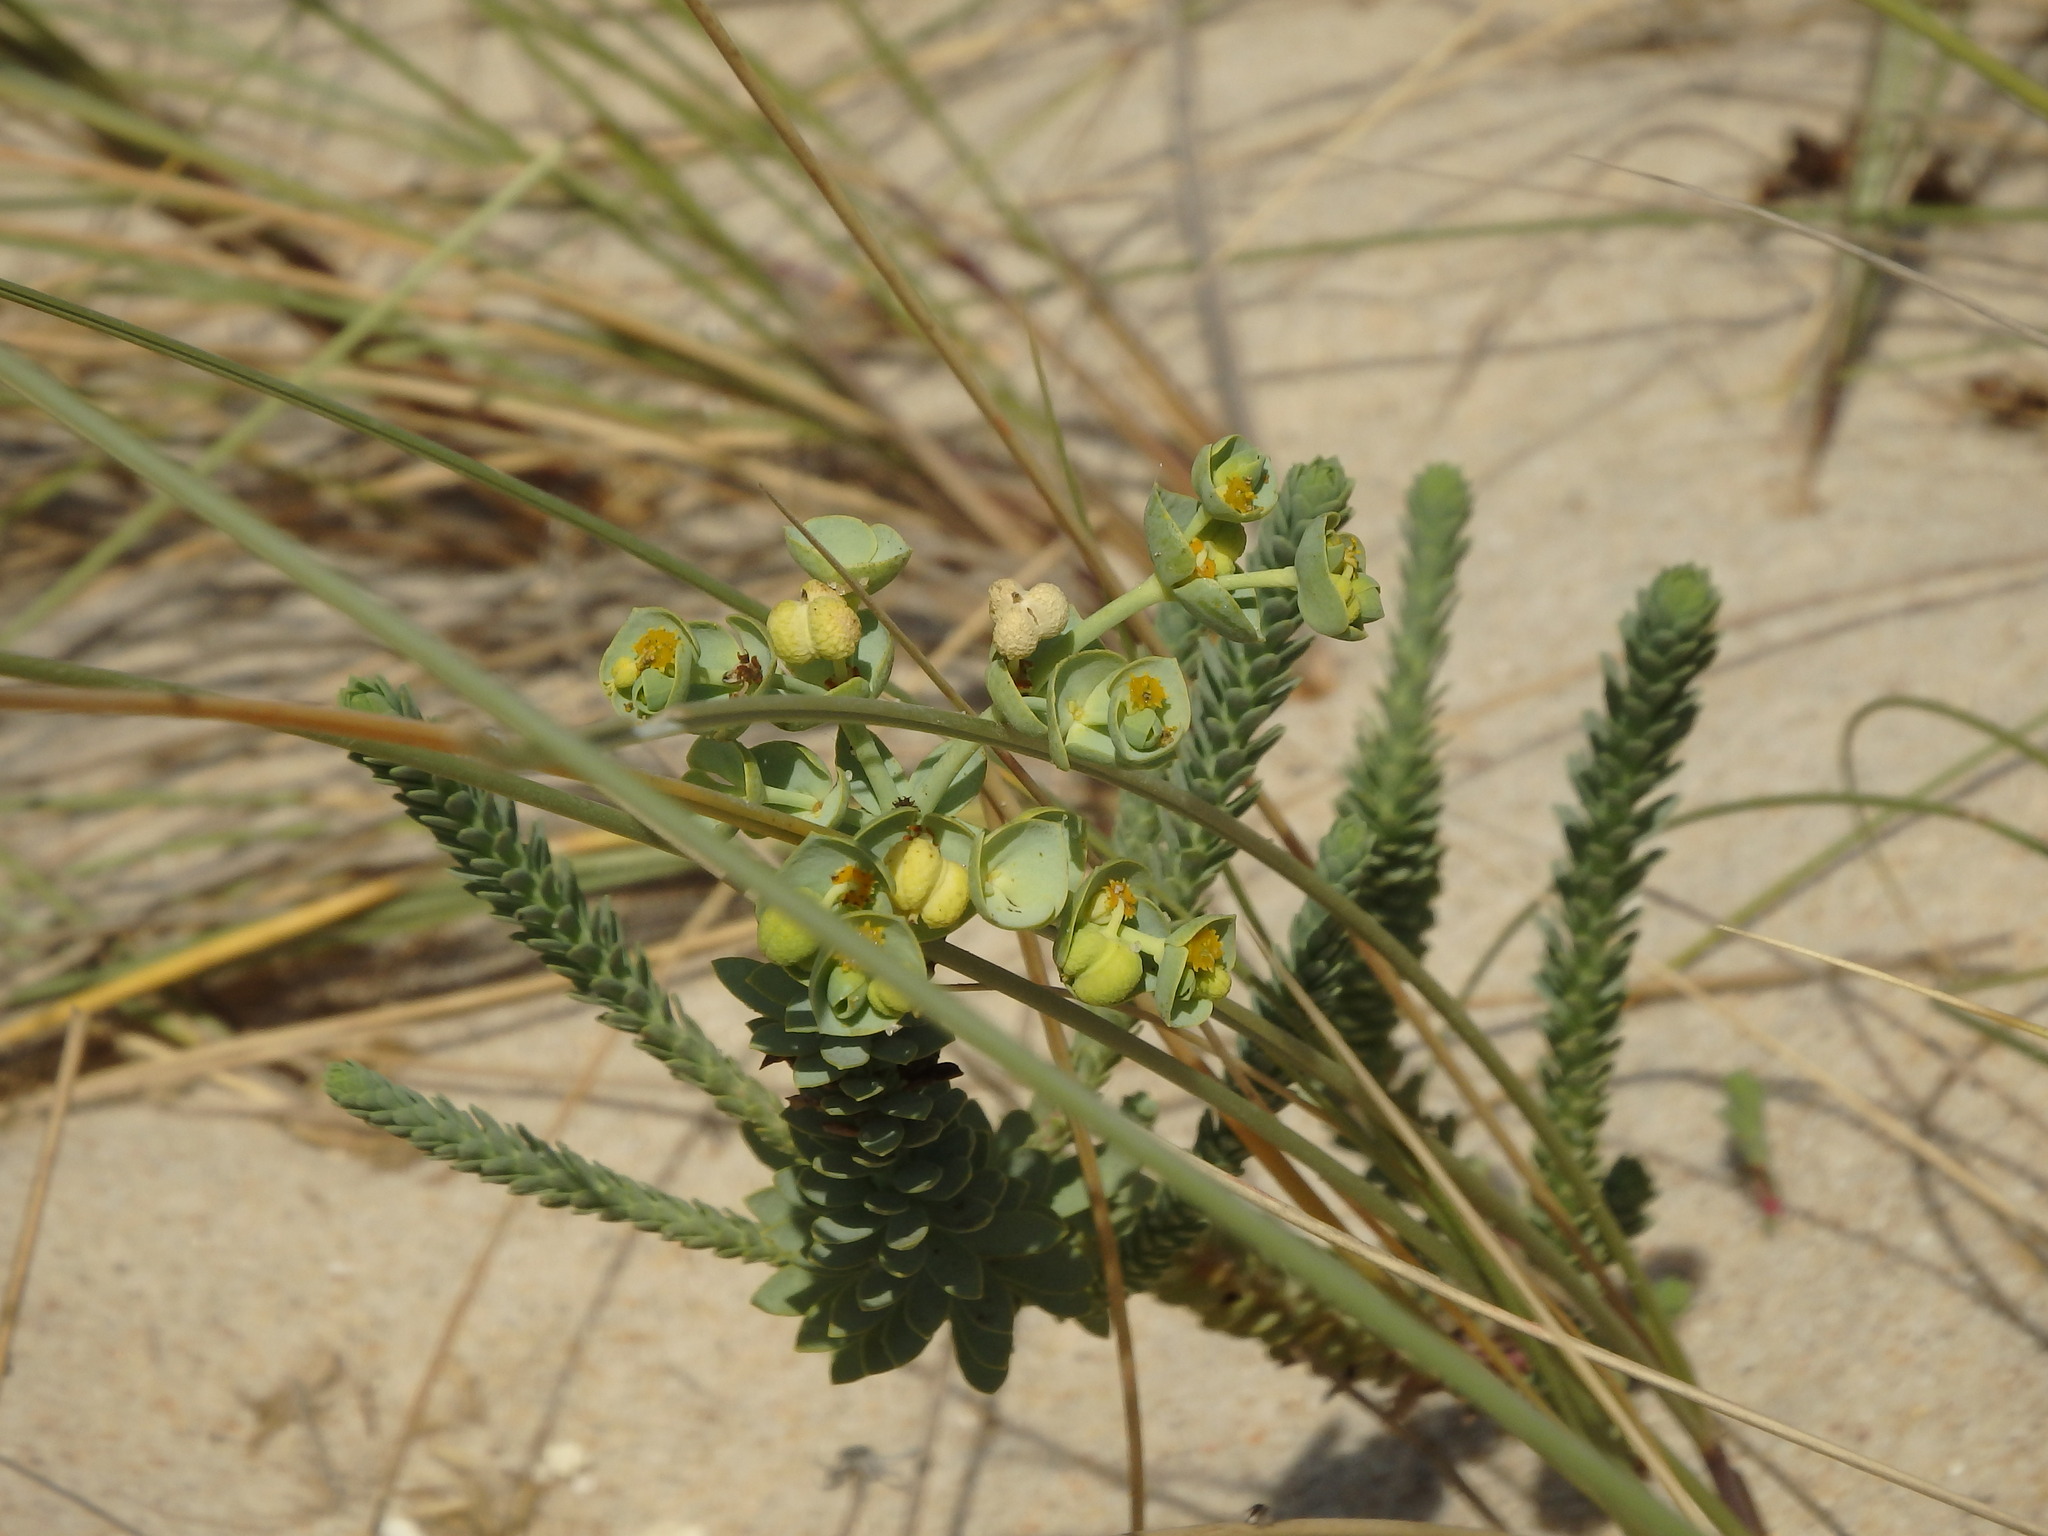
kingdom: Plantae
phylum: Tracheophyta
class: Magnoliopsida
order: Malpighiales
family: Euphorbiaceae
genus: Euphorbia
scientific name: Euphorbia paralias
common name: Sea spurge
